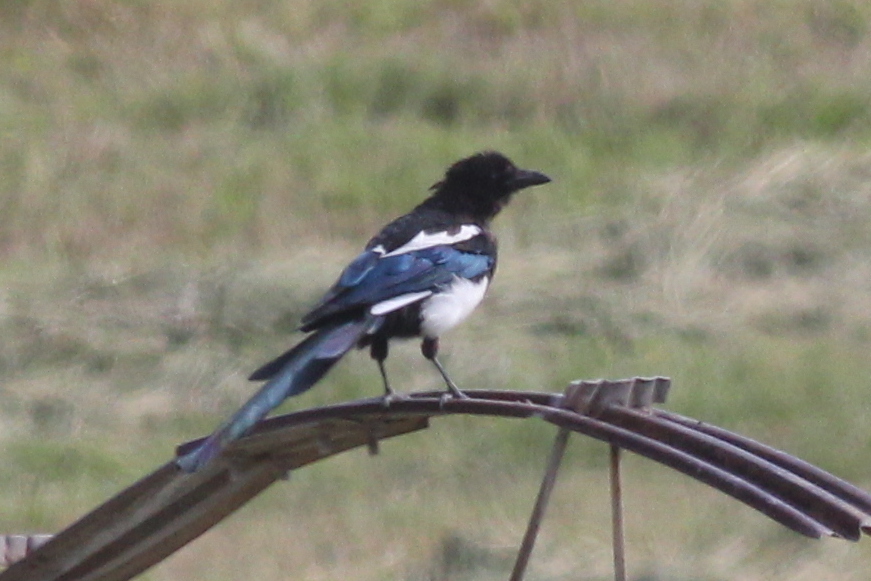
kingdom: Animalia
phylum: Chordata
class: Aves
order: Passeriformes
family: Corvidae
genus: Pica
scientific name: Pica hudsonia
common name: Black-billed magpie
